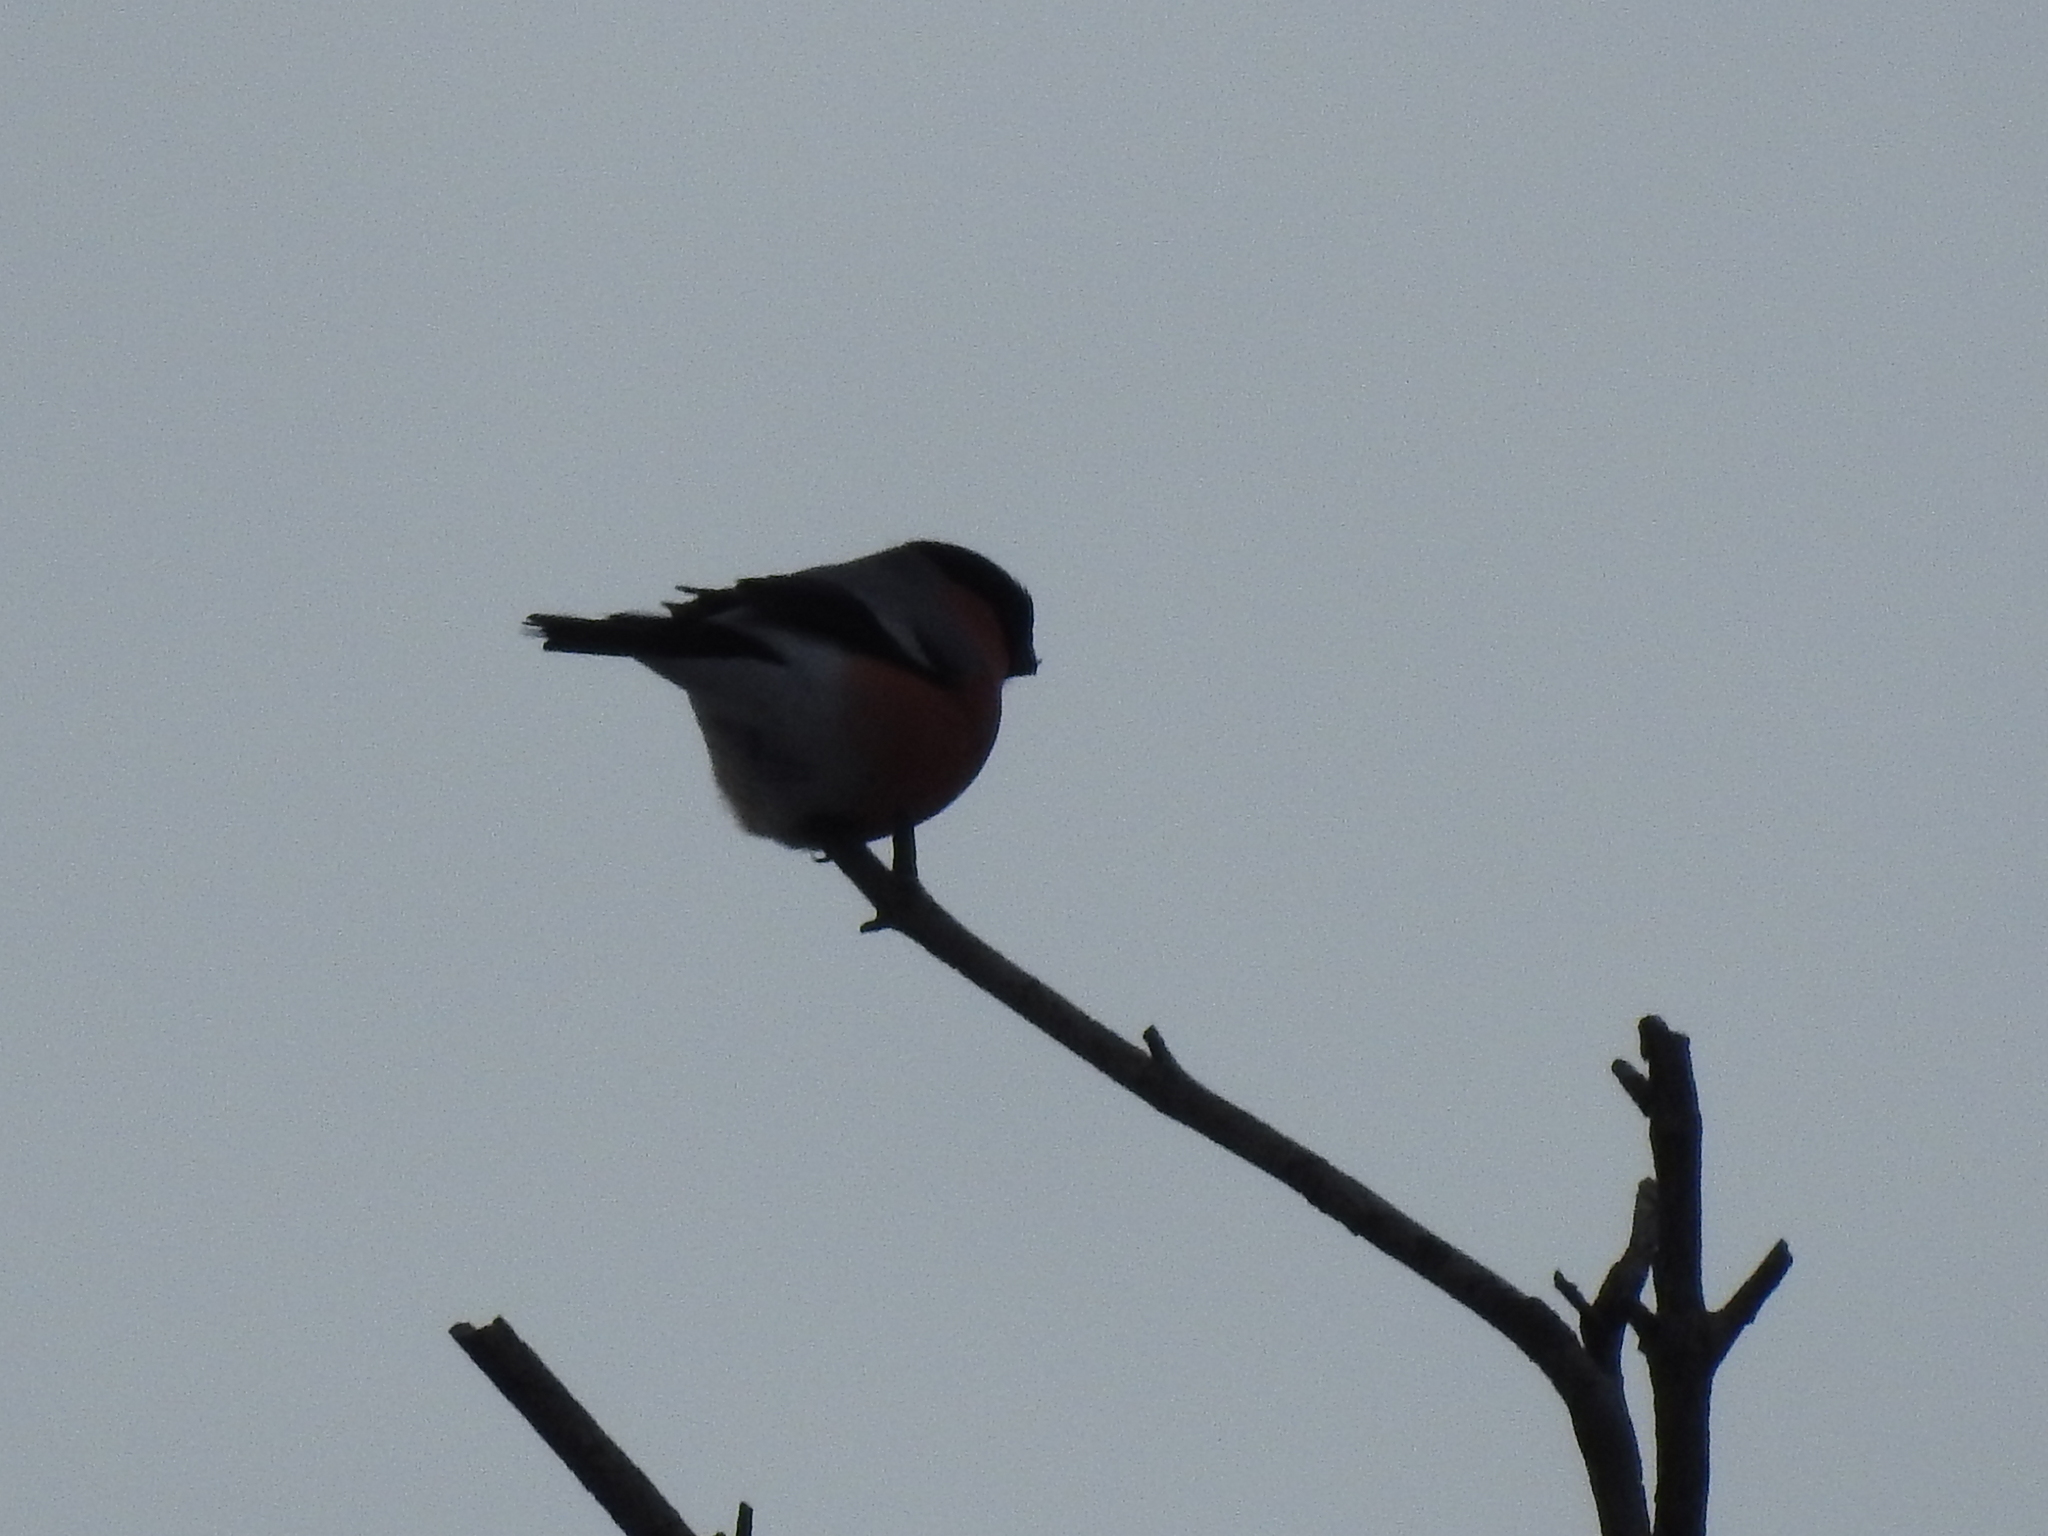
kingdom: Animalia
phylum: Chordata
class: Aves
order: Passeriformes
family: Fringillidae
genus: Pyrrhula
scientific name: Pyrrhula pyrrhula
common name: Eurasian bullfinch
